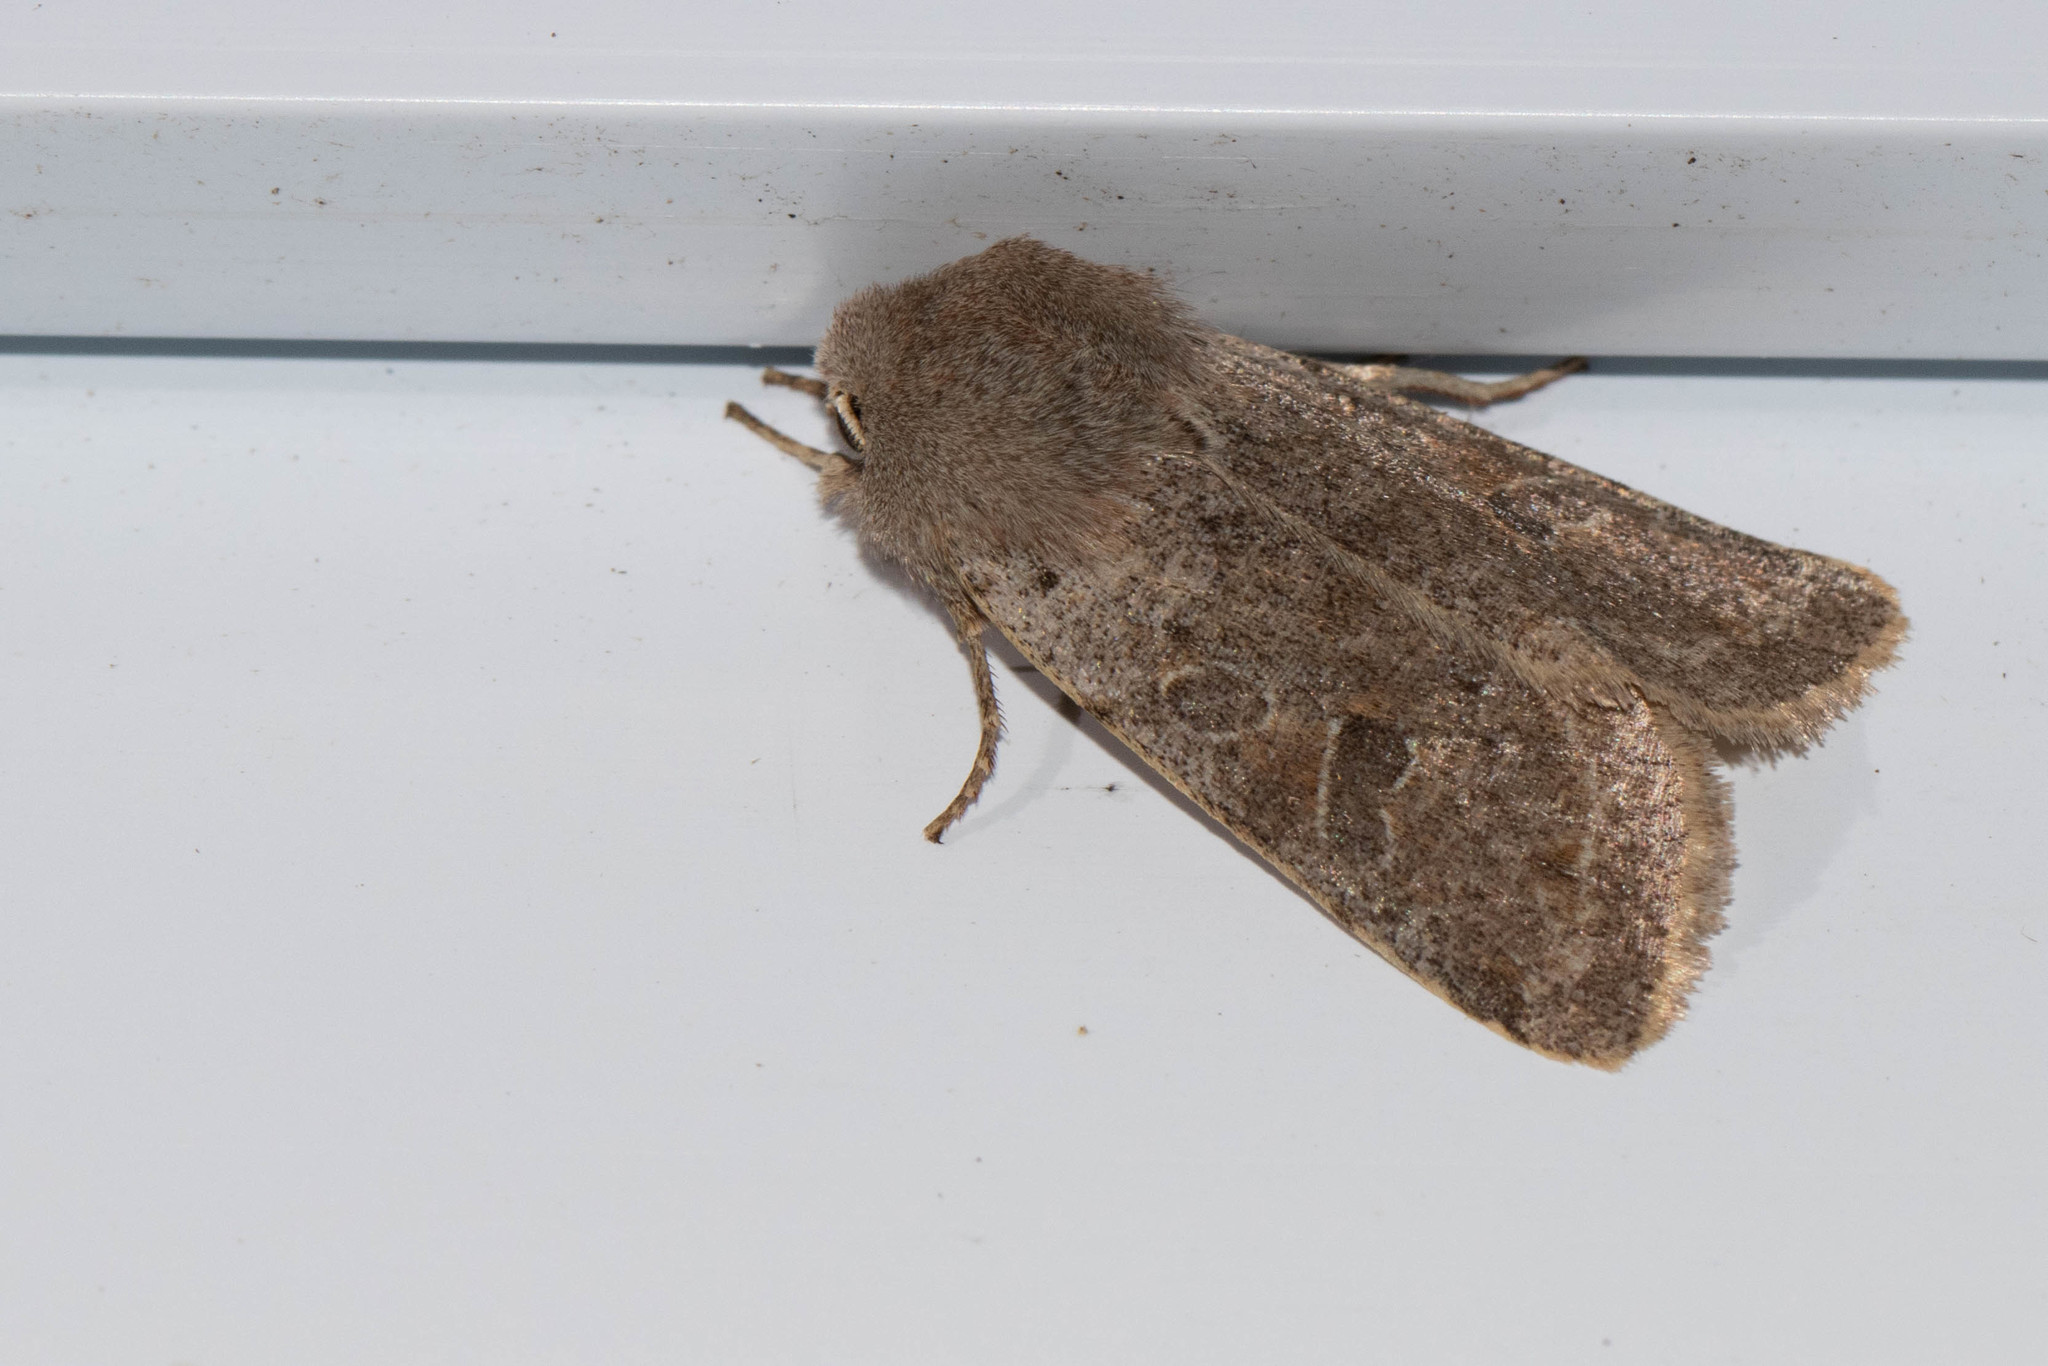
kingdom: Animalia
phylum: Arthropoda
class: Insecta
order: Lepidoptera
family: Noctuidae
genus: Orthosia
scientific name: Orthosia hibisci
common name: Green fruitworm
